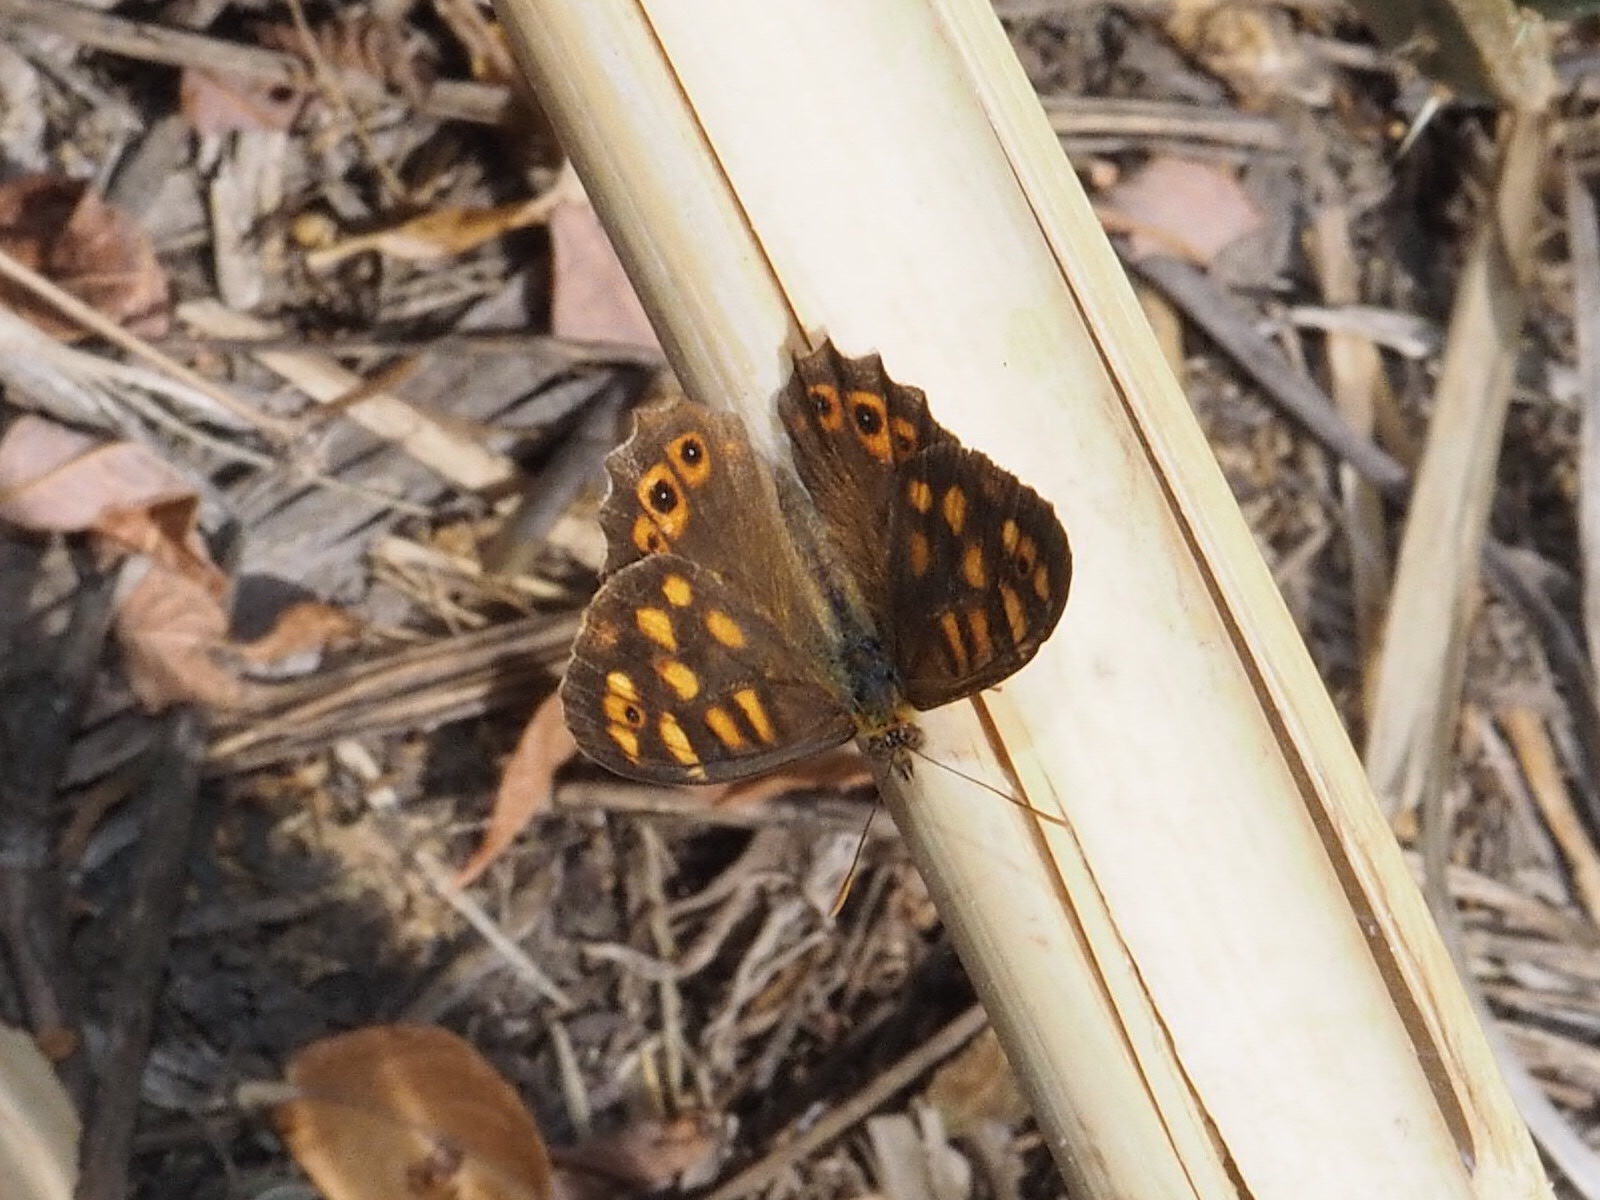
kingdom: Animalia
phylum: Arthropoda
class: Insecta
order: Lepidoptera
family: Nymphalidae
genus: Pararge
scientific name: Pararge aegeria
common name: Speckled wood
